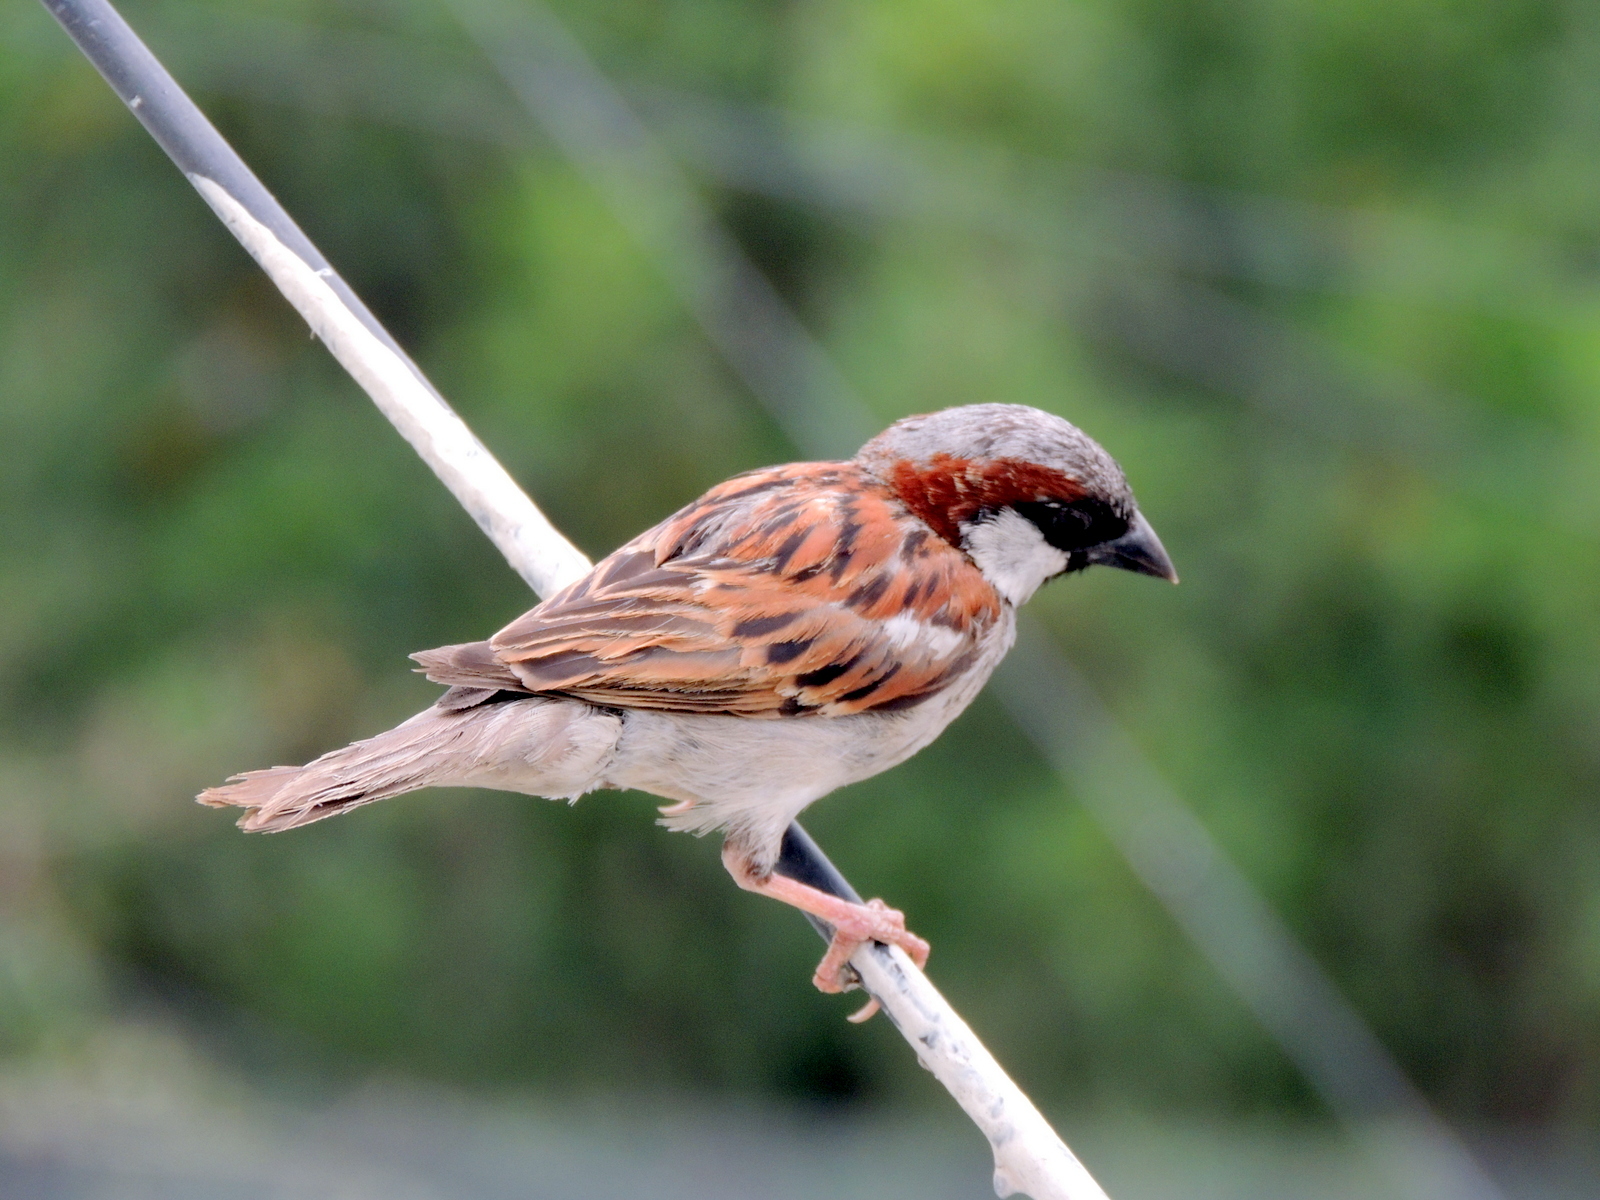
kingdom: Animalia
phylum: Chordata
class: Aves
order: Passeriformes
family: Passeridae
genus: Passer
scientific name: Passer domesticus
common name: House sparrow
